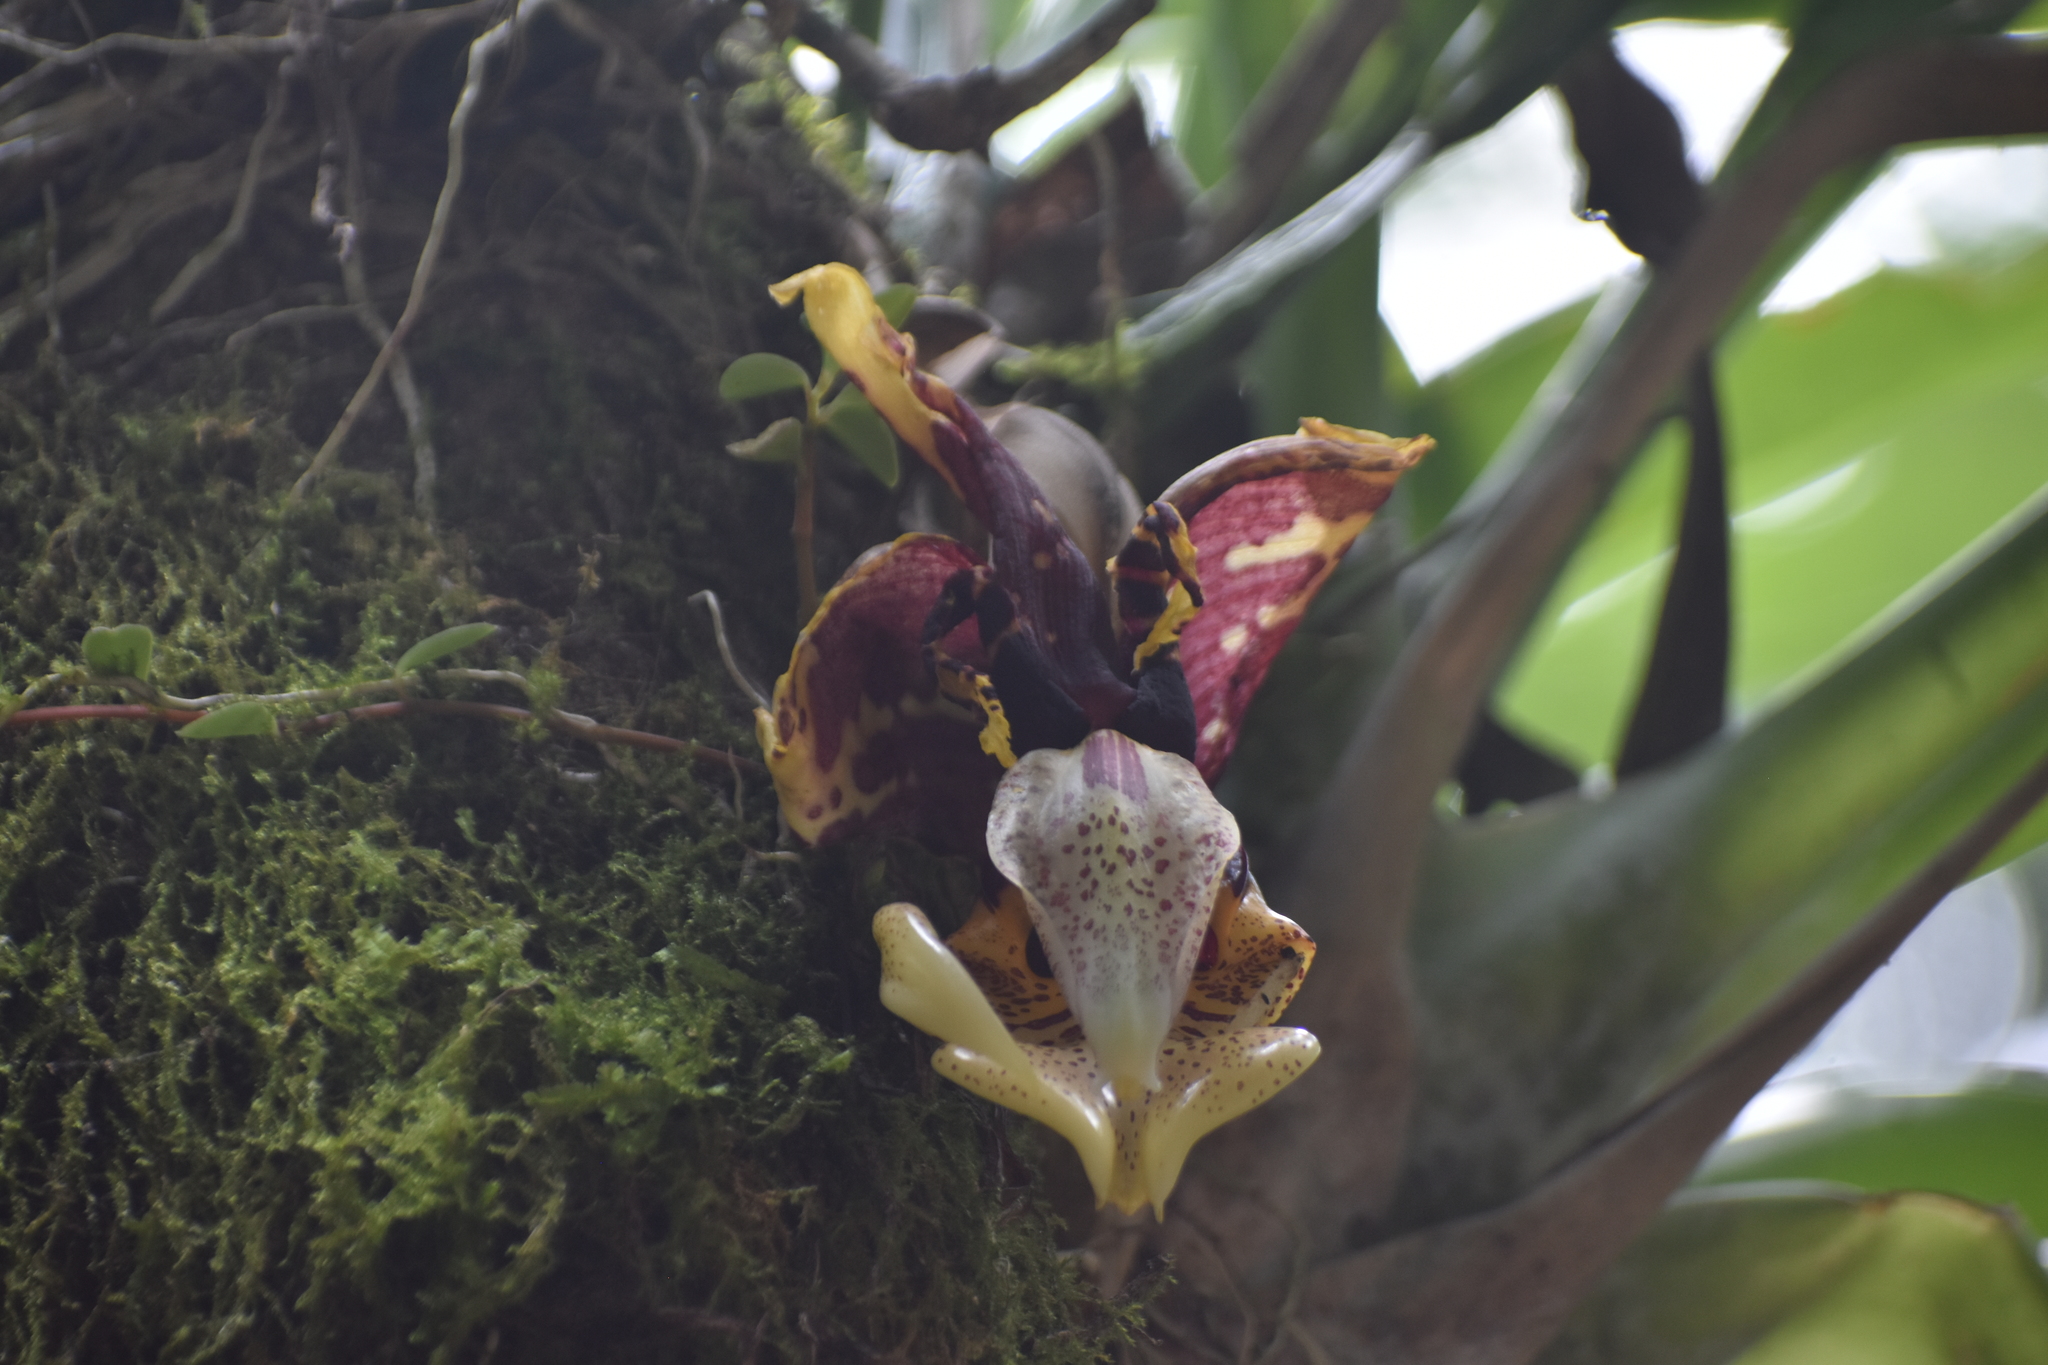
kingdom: Plantae
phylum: Tracheophyta
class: Liliopsida
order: Asparagales
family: Orchidaceae
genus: Stanhopea
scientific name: Stanhopea tigrina
